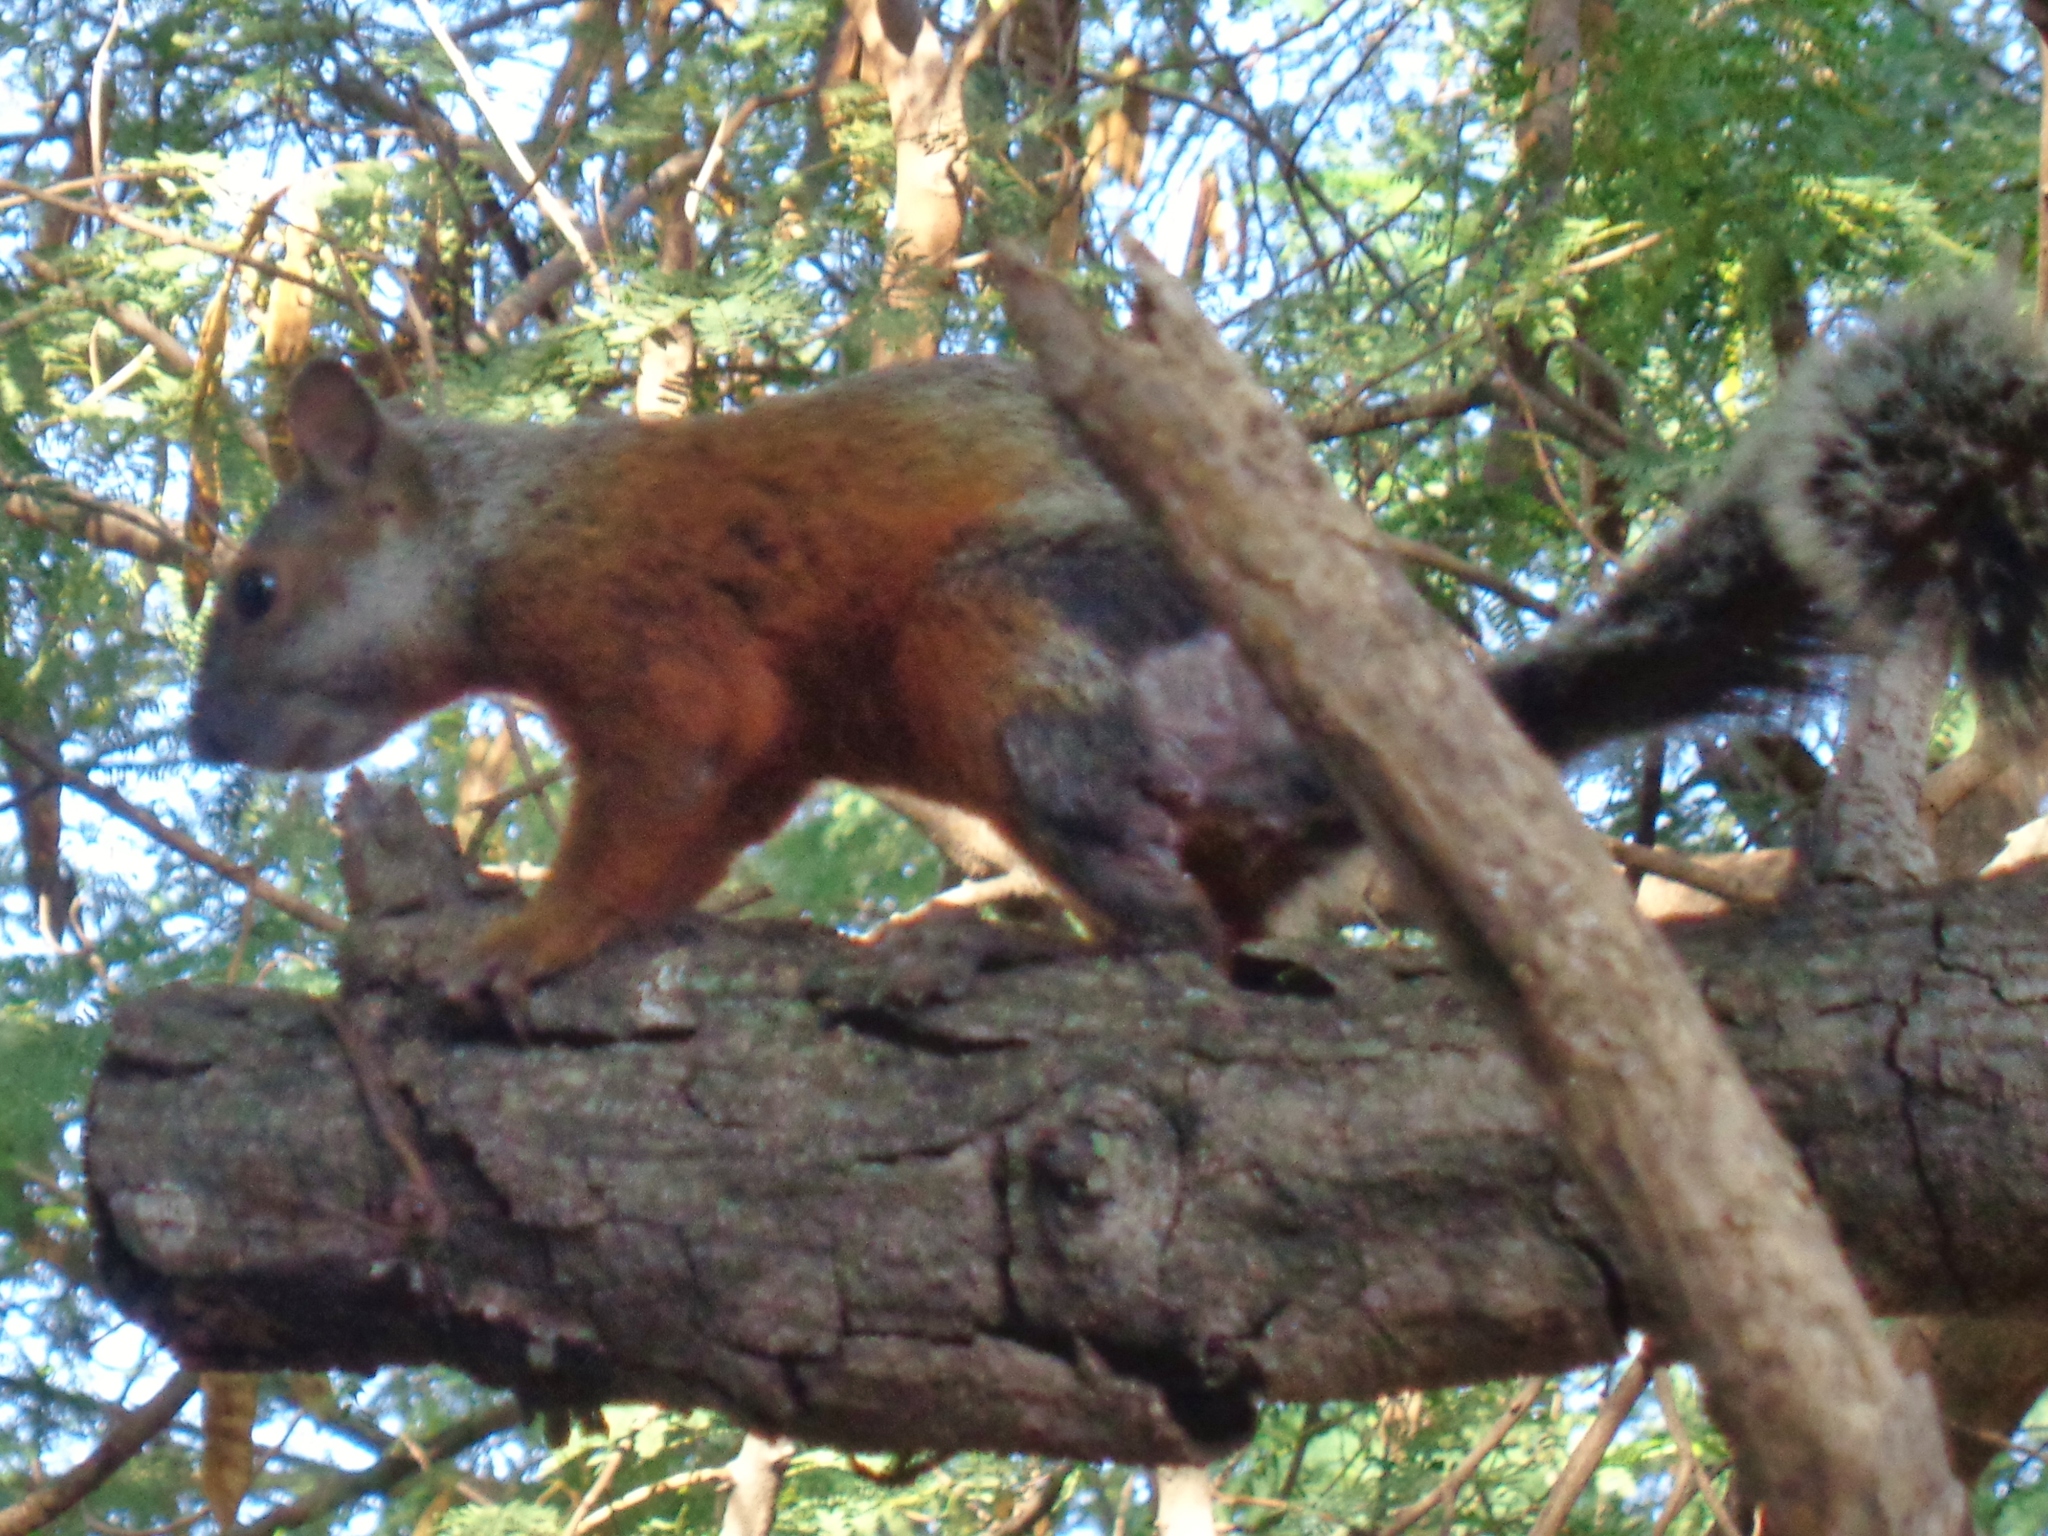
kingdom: Animalia
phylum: Chordata
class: Mammalia
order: Rodentia
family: Sciuridae
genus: Sciurus
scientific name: Sciurus aureogaster
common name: Red-bellied squirrel
